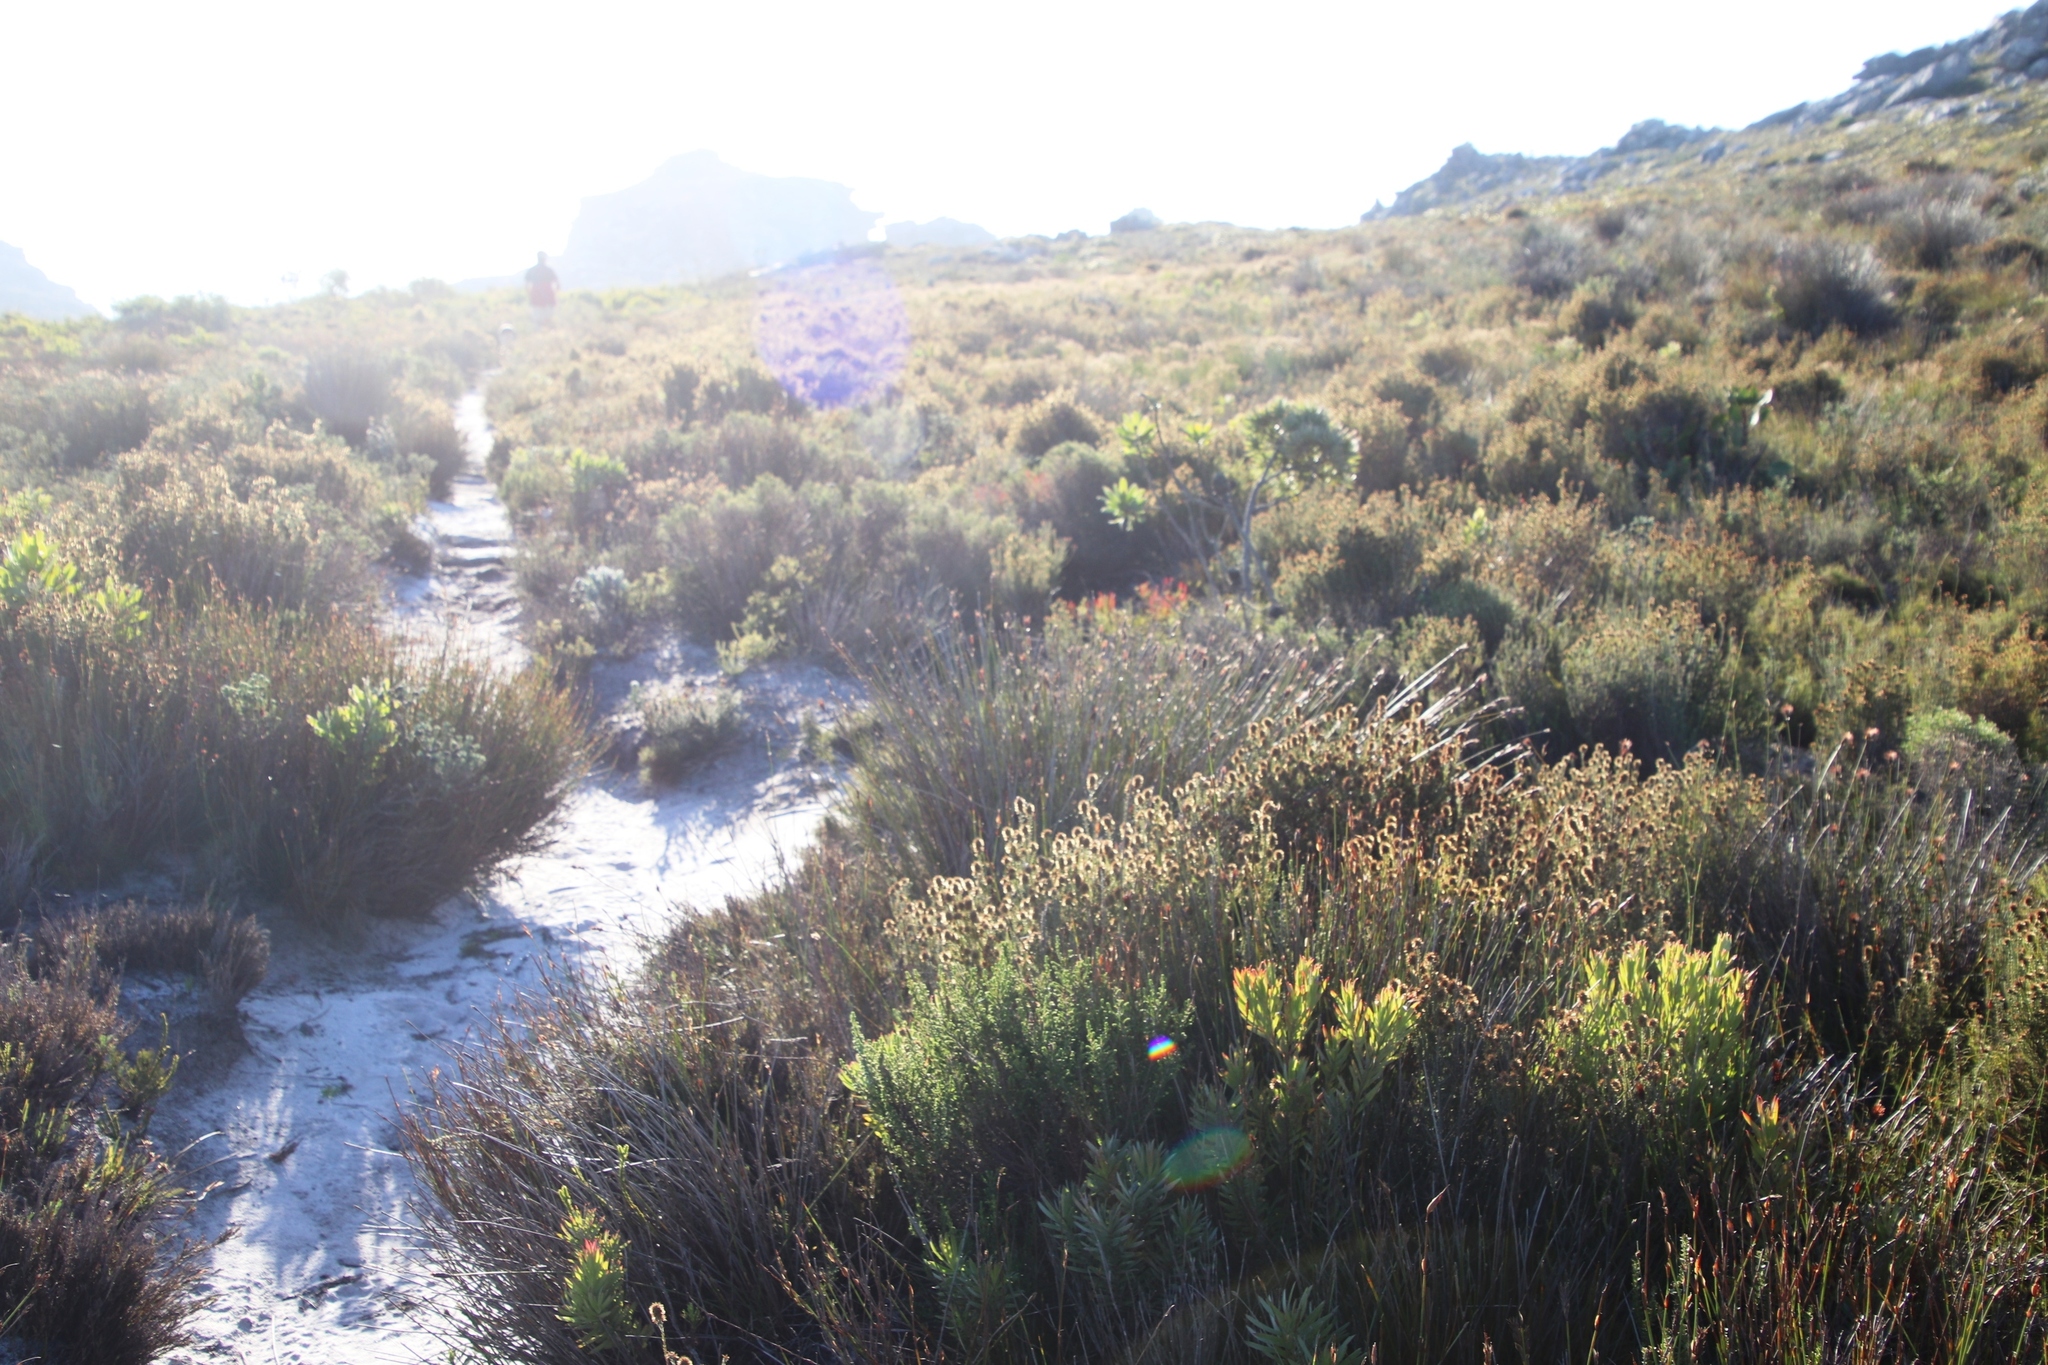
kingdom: Plantae
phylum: Tracheophyta
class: Magnoliopsida
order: Asterales
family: Asteraceae
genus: Seriphium
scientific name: Seriphium cinereum
